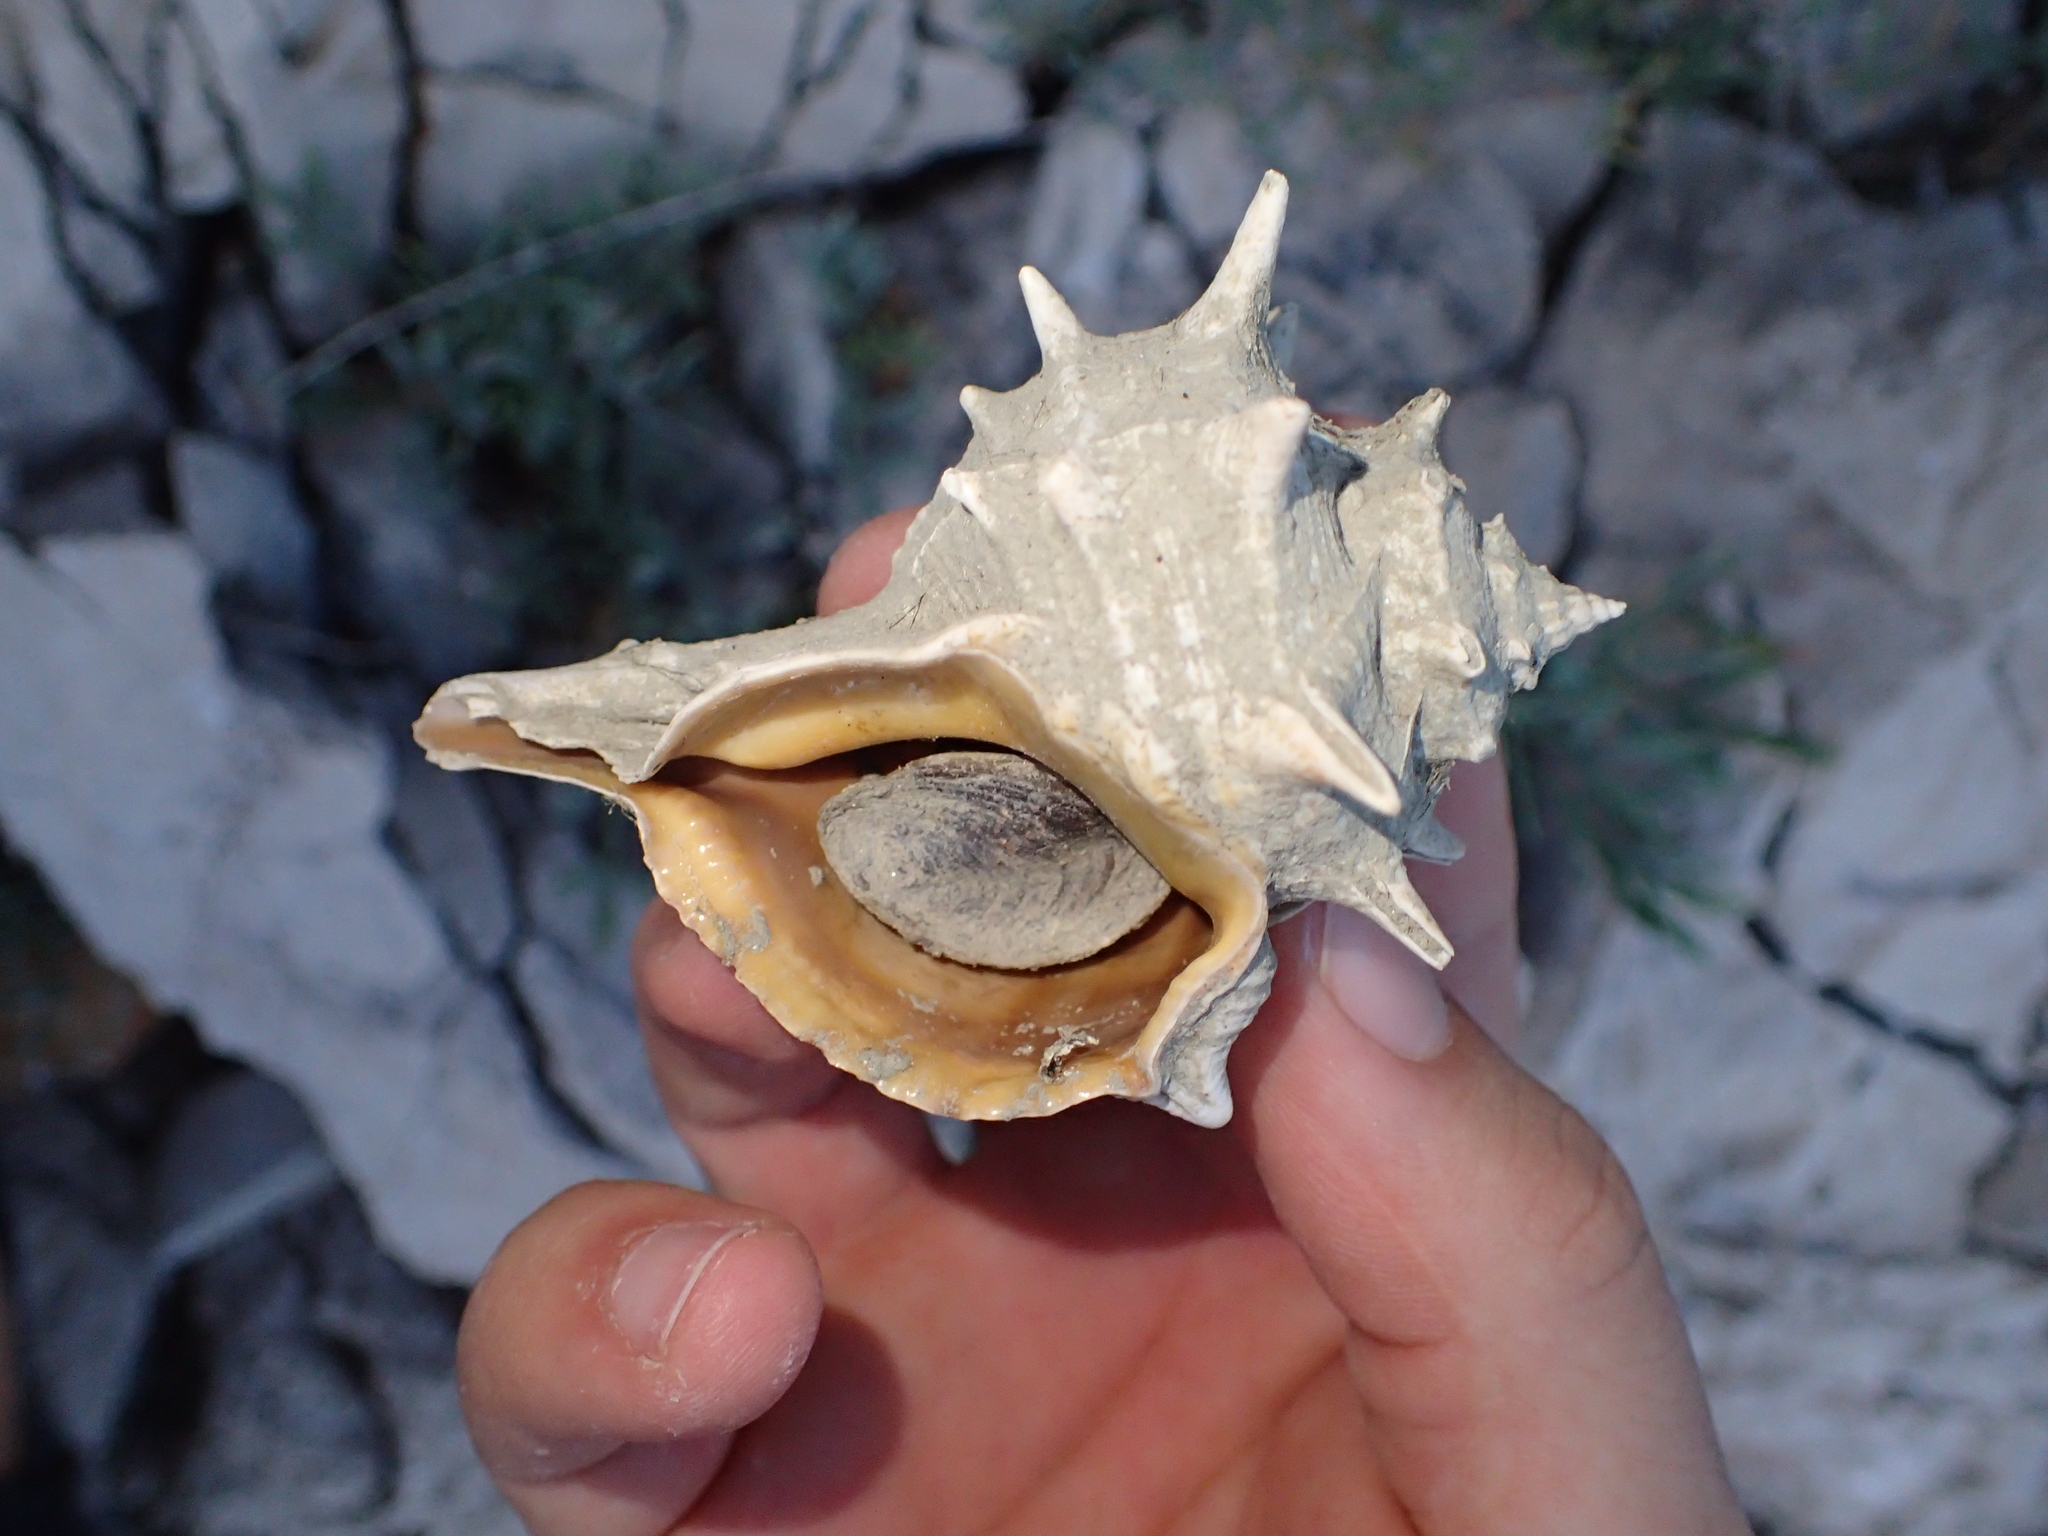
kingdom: Animalia
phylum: Mollusca
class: Gastropoda
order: Neogastropoda
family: Muricidae
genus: Bolinus
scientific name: Bolinus brandaris
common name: Dye murex
